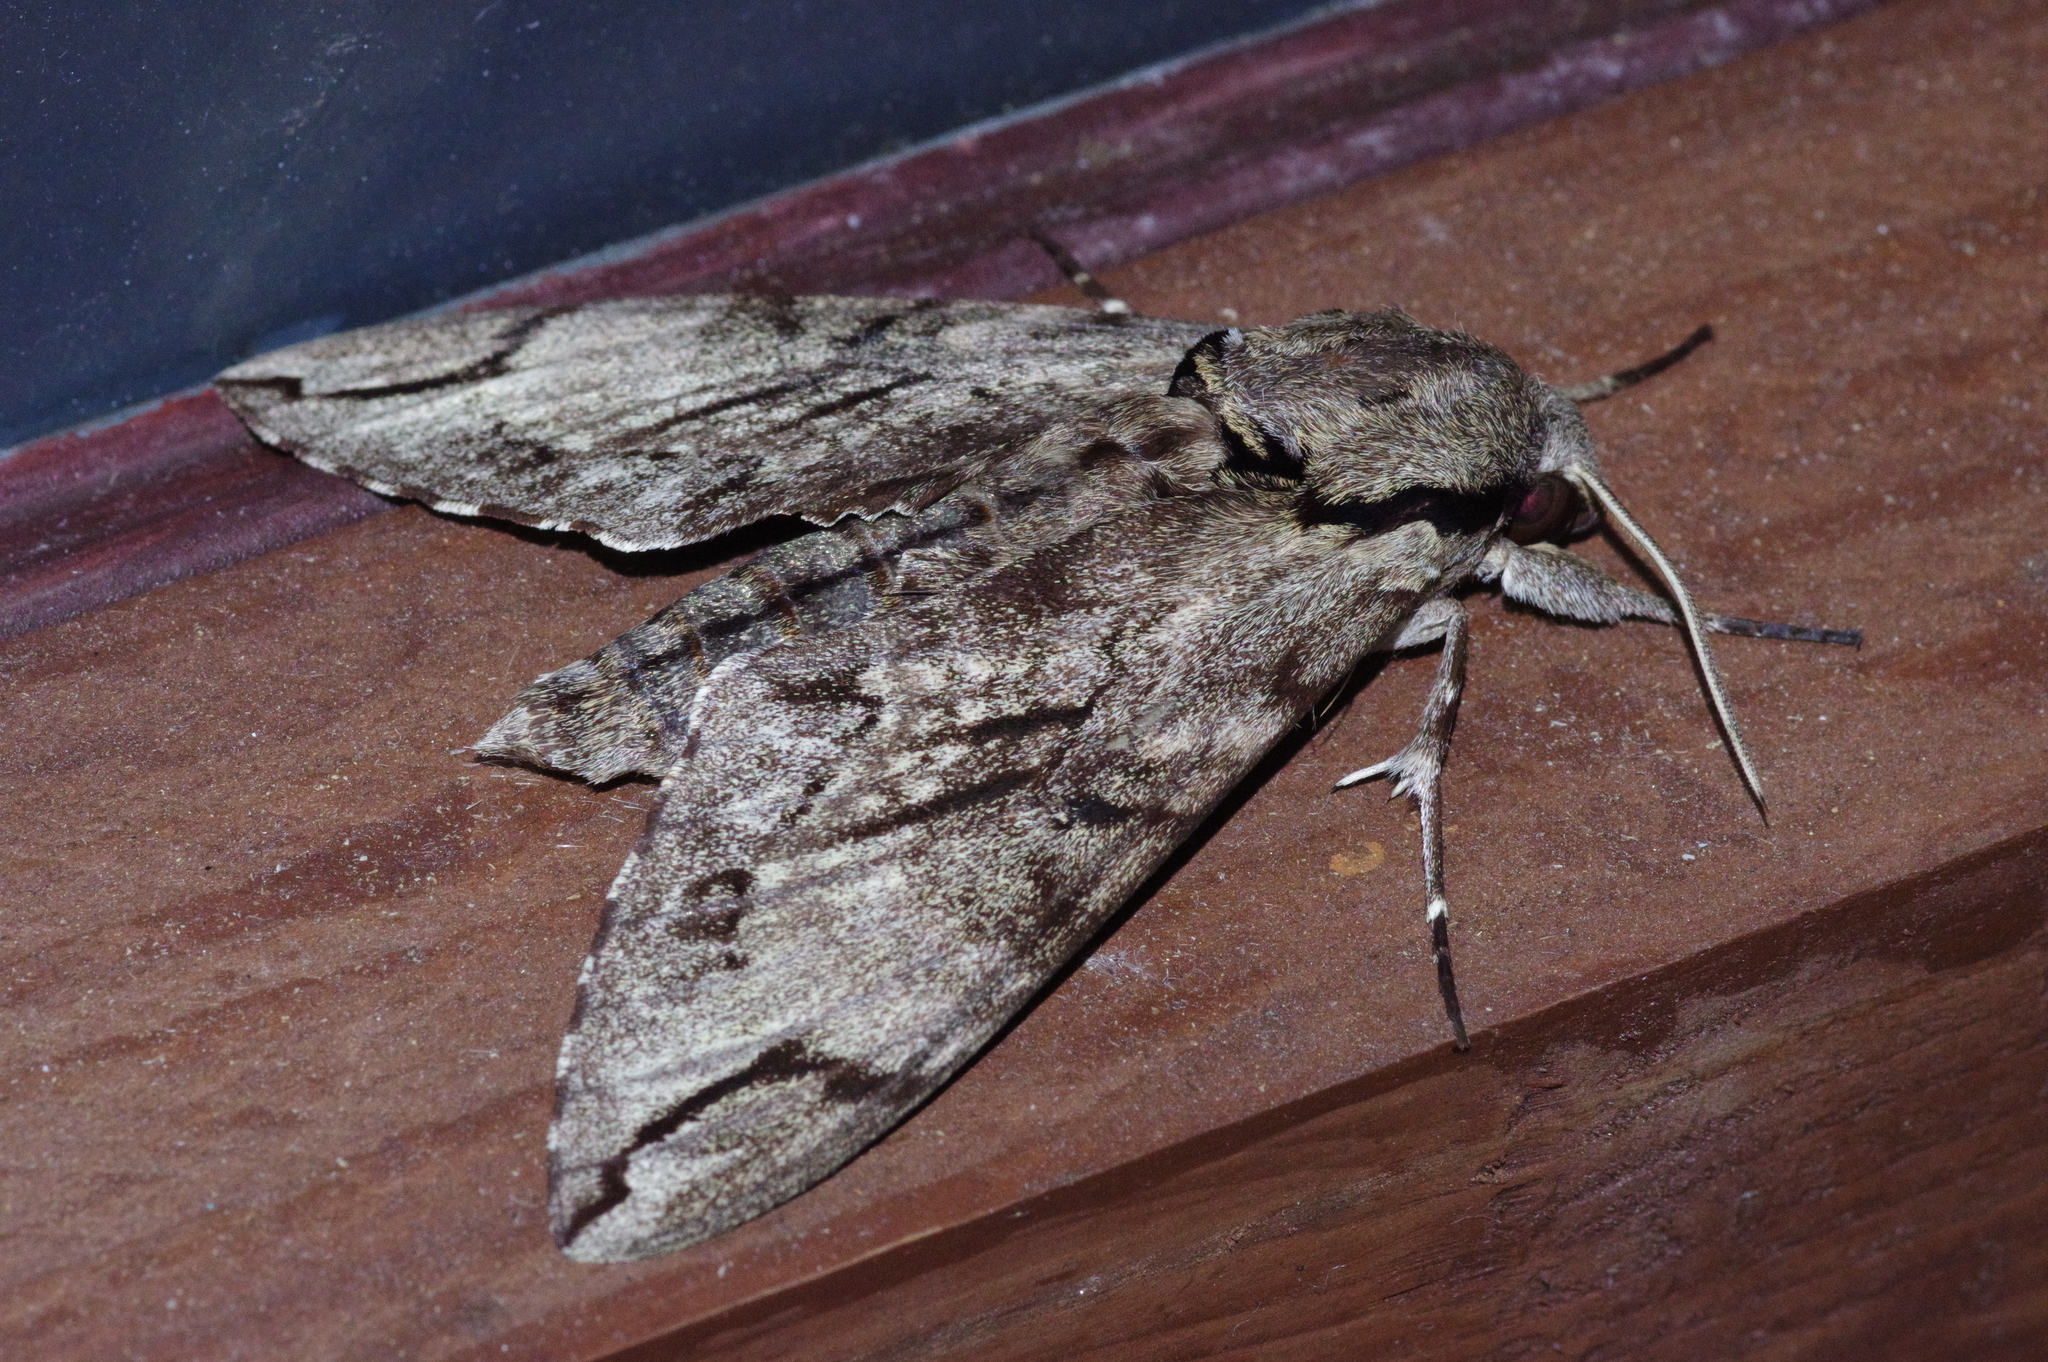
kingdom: Animalia
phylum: Arthropoda
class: Insecta
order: Lepidoptera
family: Sphingidae
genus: Psilogramma
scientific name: Psilogramma increta
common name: Gray hawk moth
